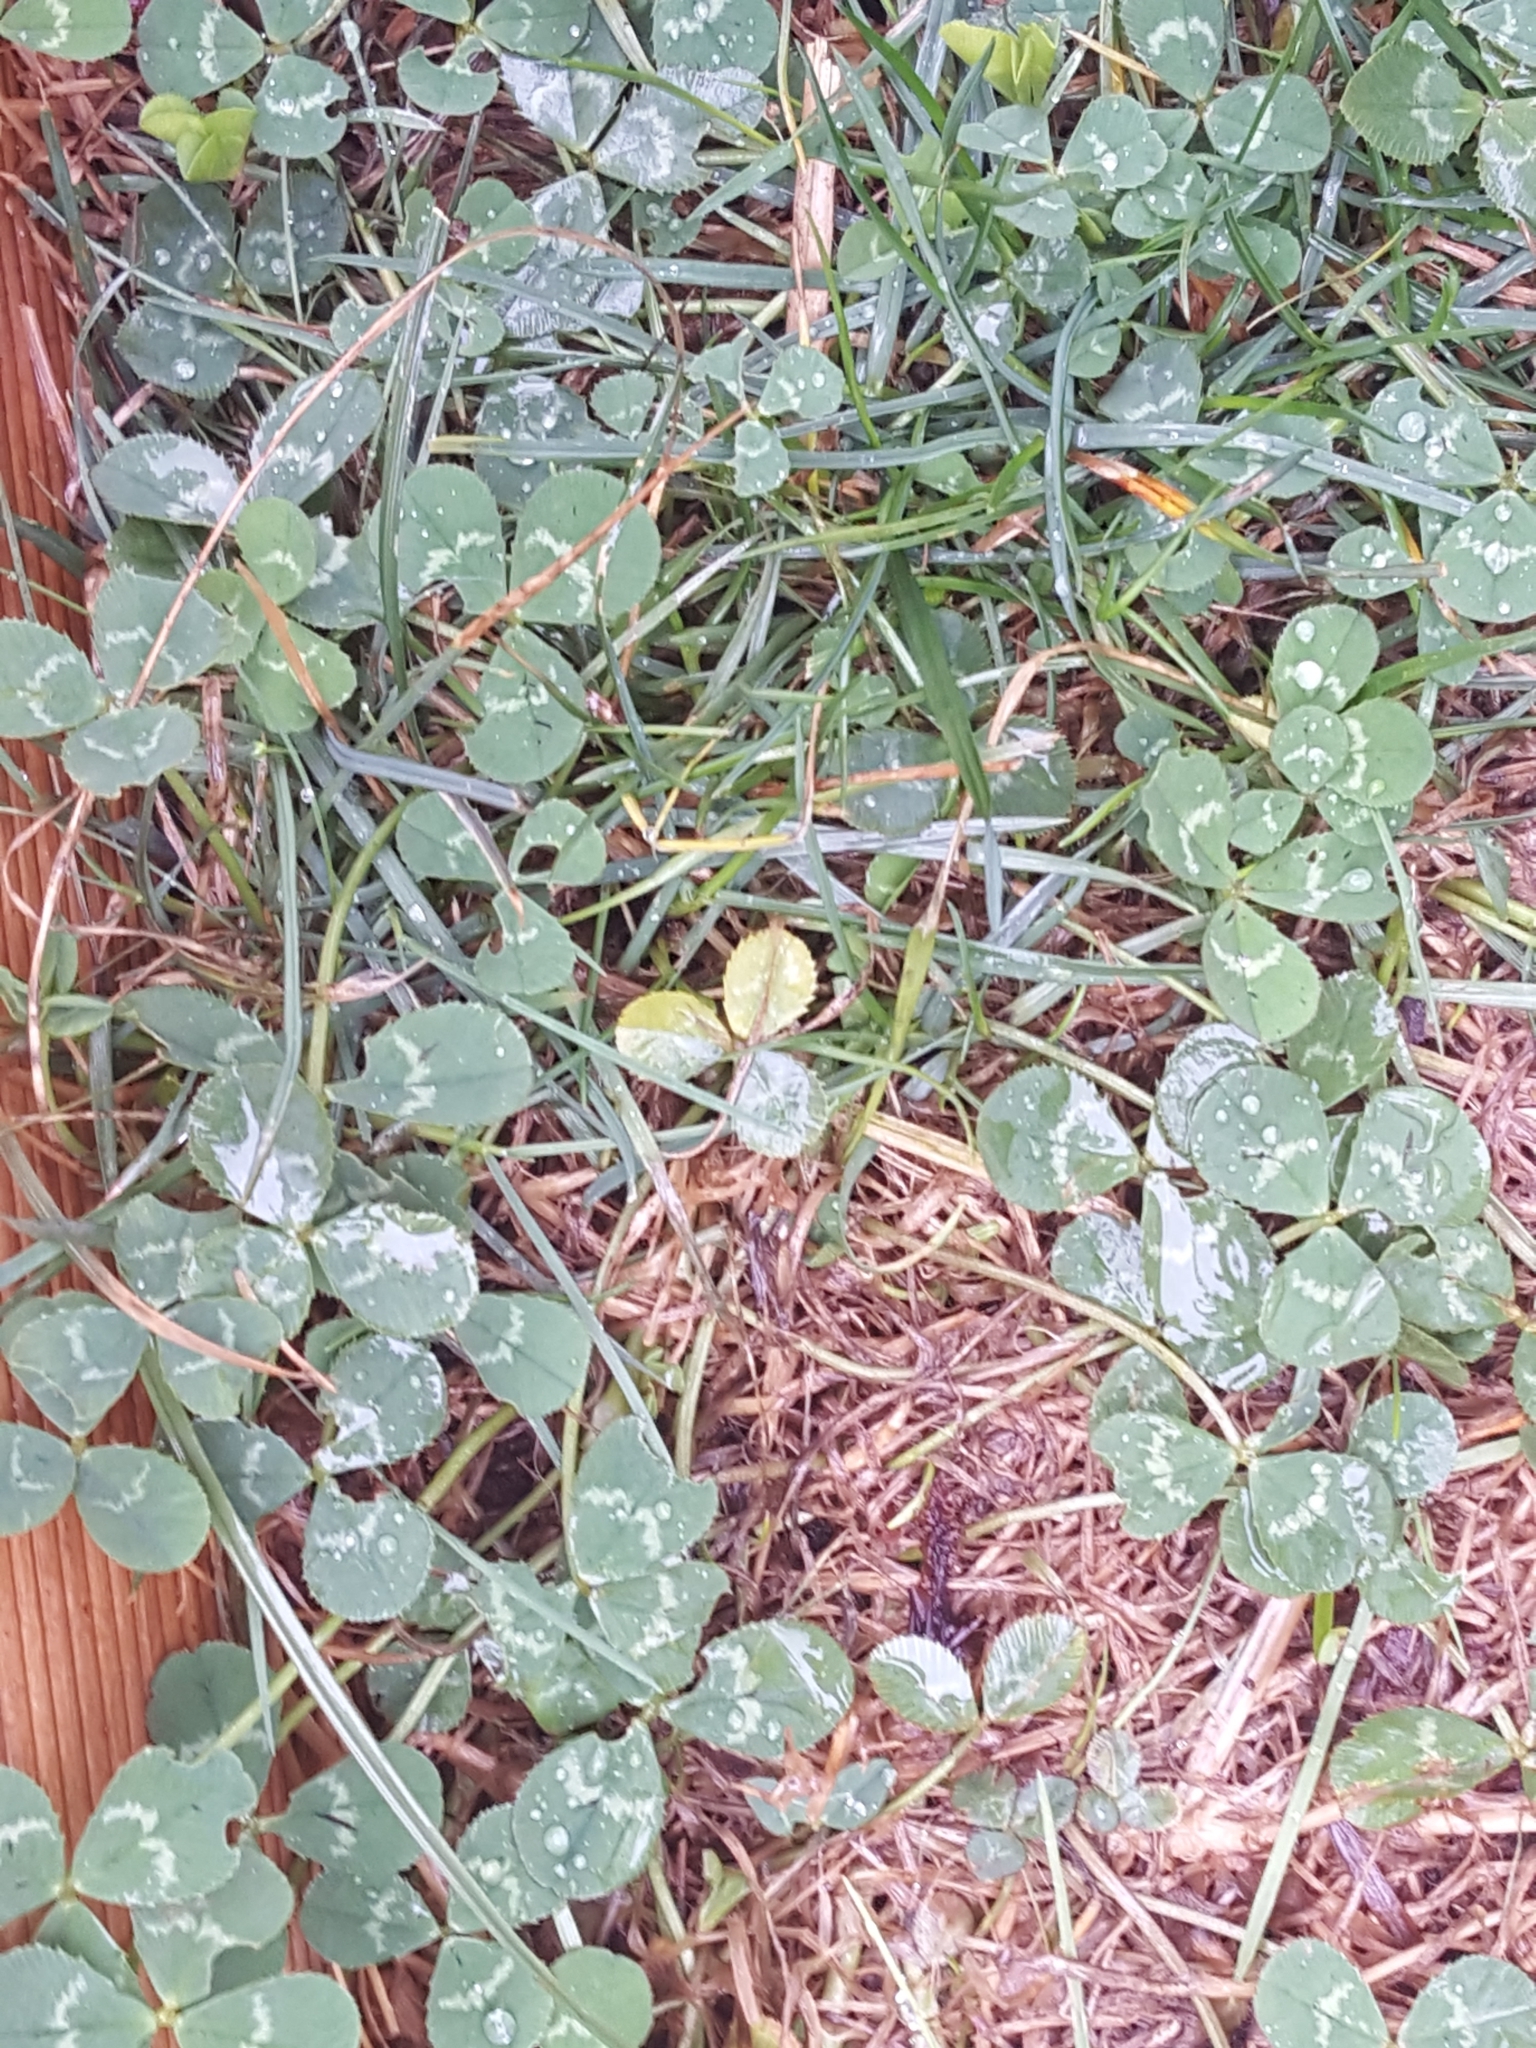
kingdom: Plantae
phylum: Tracheophyta
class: Magnoliopsida
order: Fabales
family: Fabaceae
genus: Trifolium
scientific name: Trifolium repens
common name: White clover
